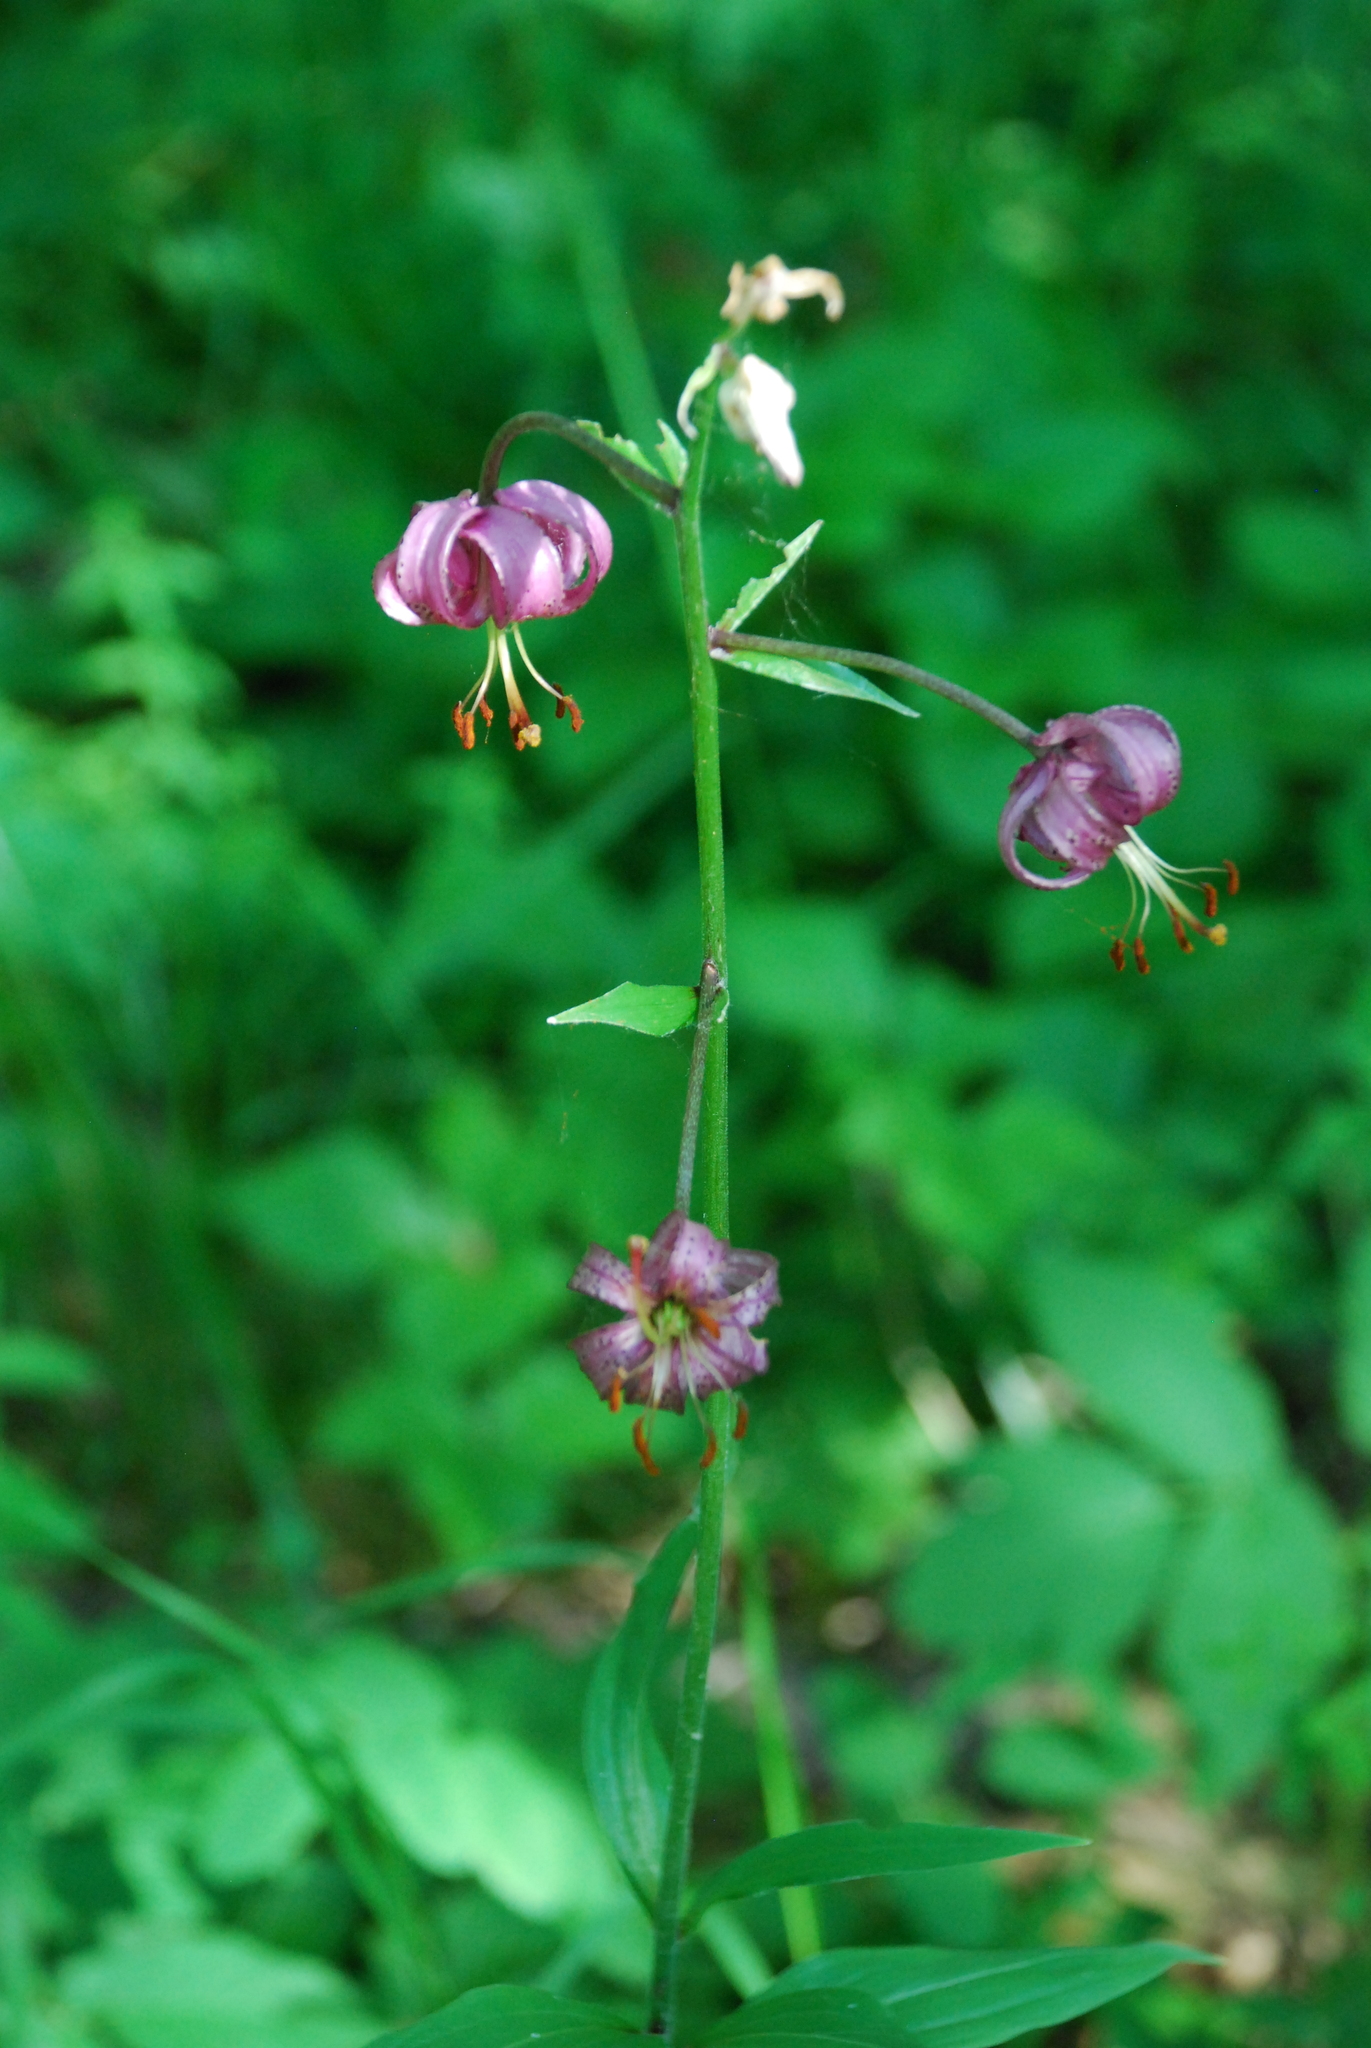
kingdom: Plantae
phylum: Tracheophyta
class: Liliopsida
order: Liliales
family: Liliaceae
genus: Lilium
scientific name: Lilium martagon
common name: Martagon lily
